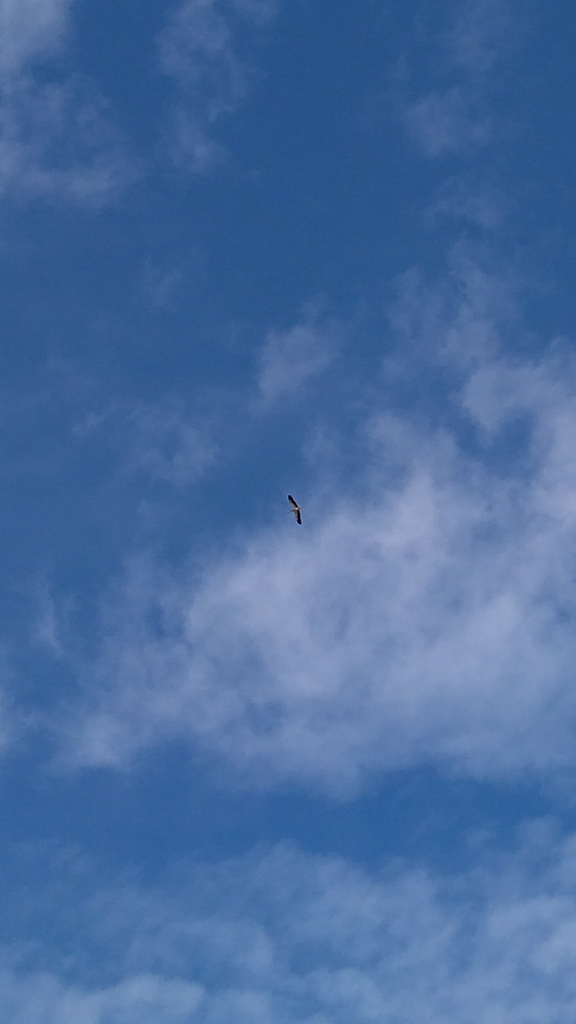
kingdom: Animalia
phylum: Chordata
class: Aves
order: Ciconiiformes
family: Ciconiidae
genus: Ciconia
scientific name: Ciconia ciconia
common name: White stork
